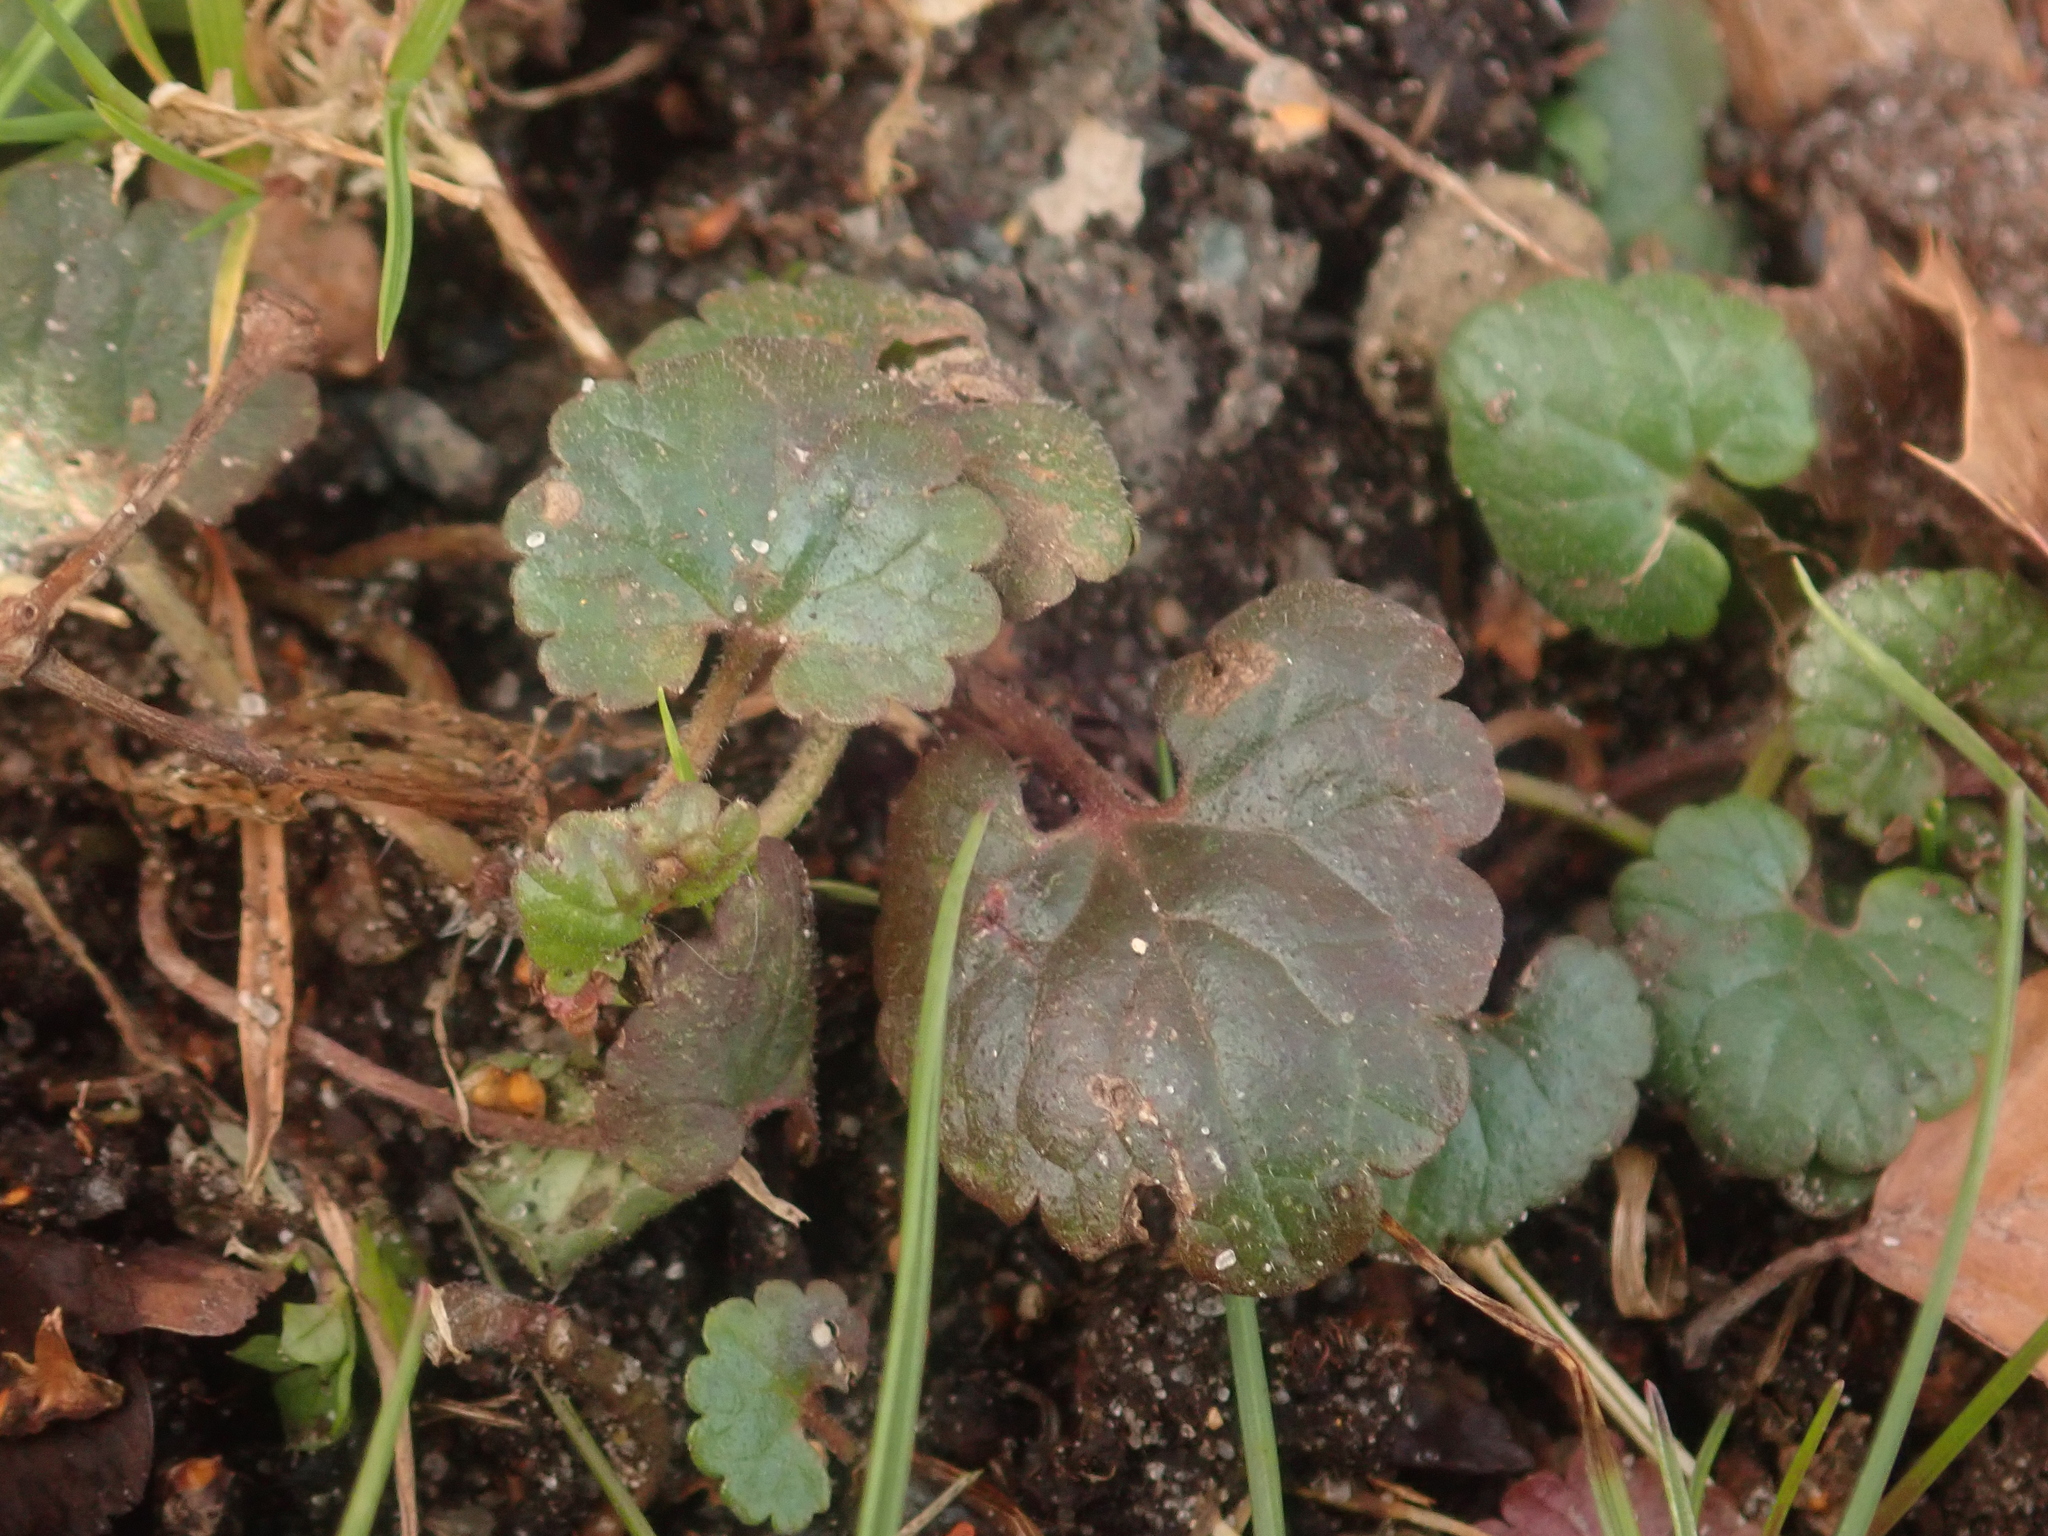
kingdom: Plantae
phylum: Tracheophyta
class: Magnoliopsida
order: Lamiales
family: Lamiaceae
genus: Glechoma
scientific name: Glechoma hederacea
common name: Ground ivy
